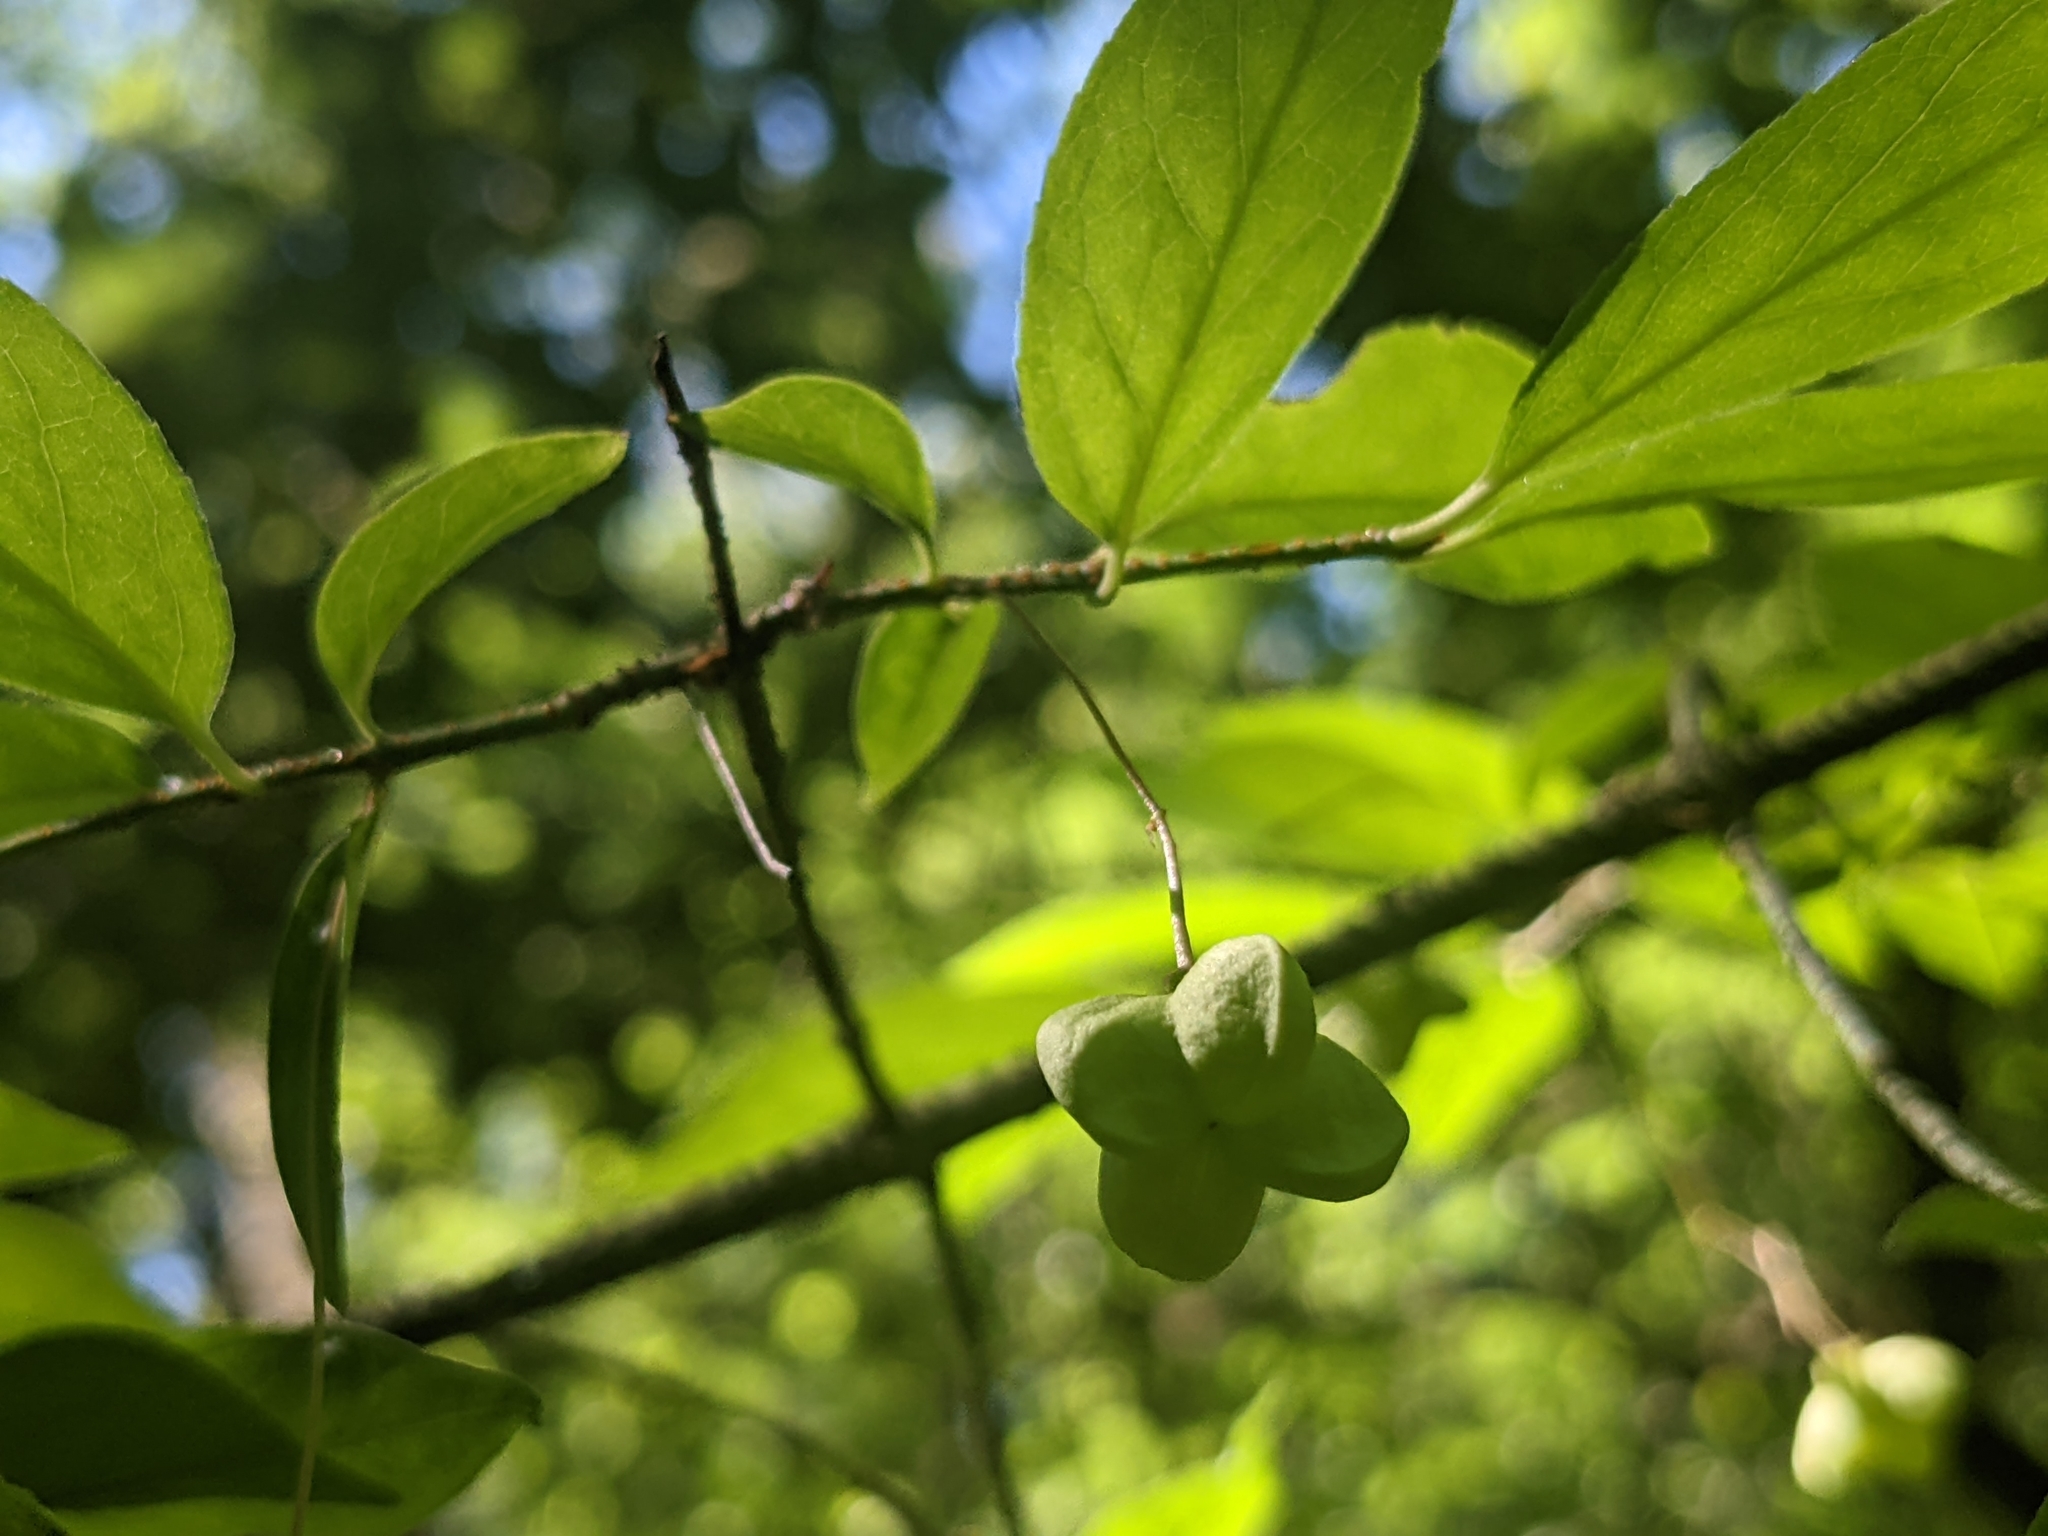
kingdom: Plantae
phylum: Tracheophyta
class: Magnoliopsida
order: Celastrales
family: Celastraceae
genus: Euonymus
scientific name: Euonymus verrucosus
